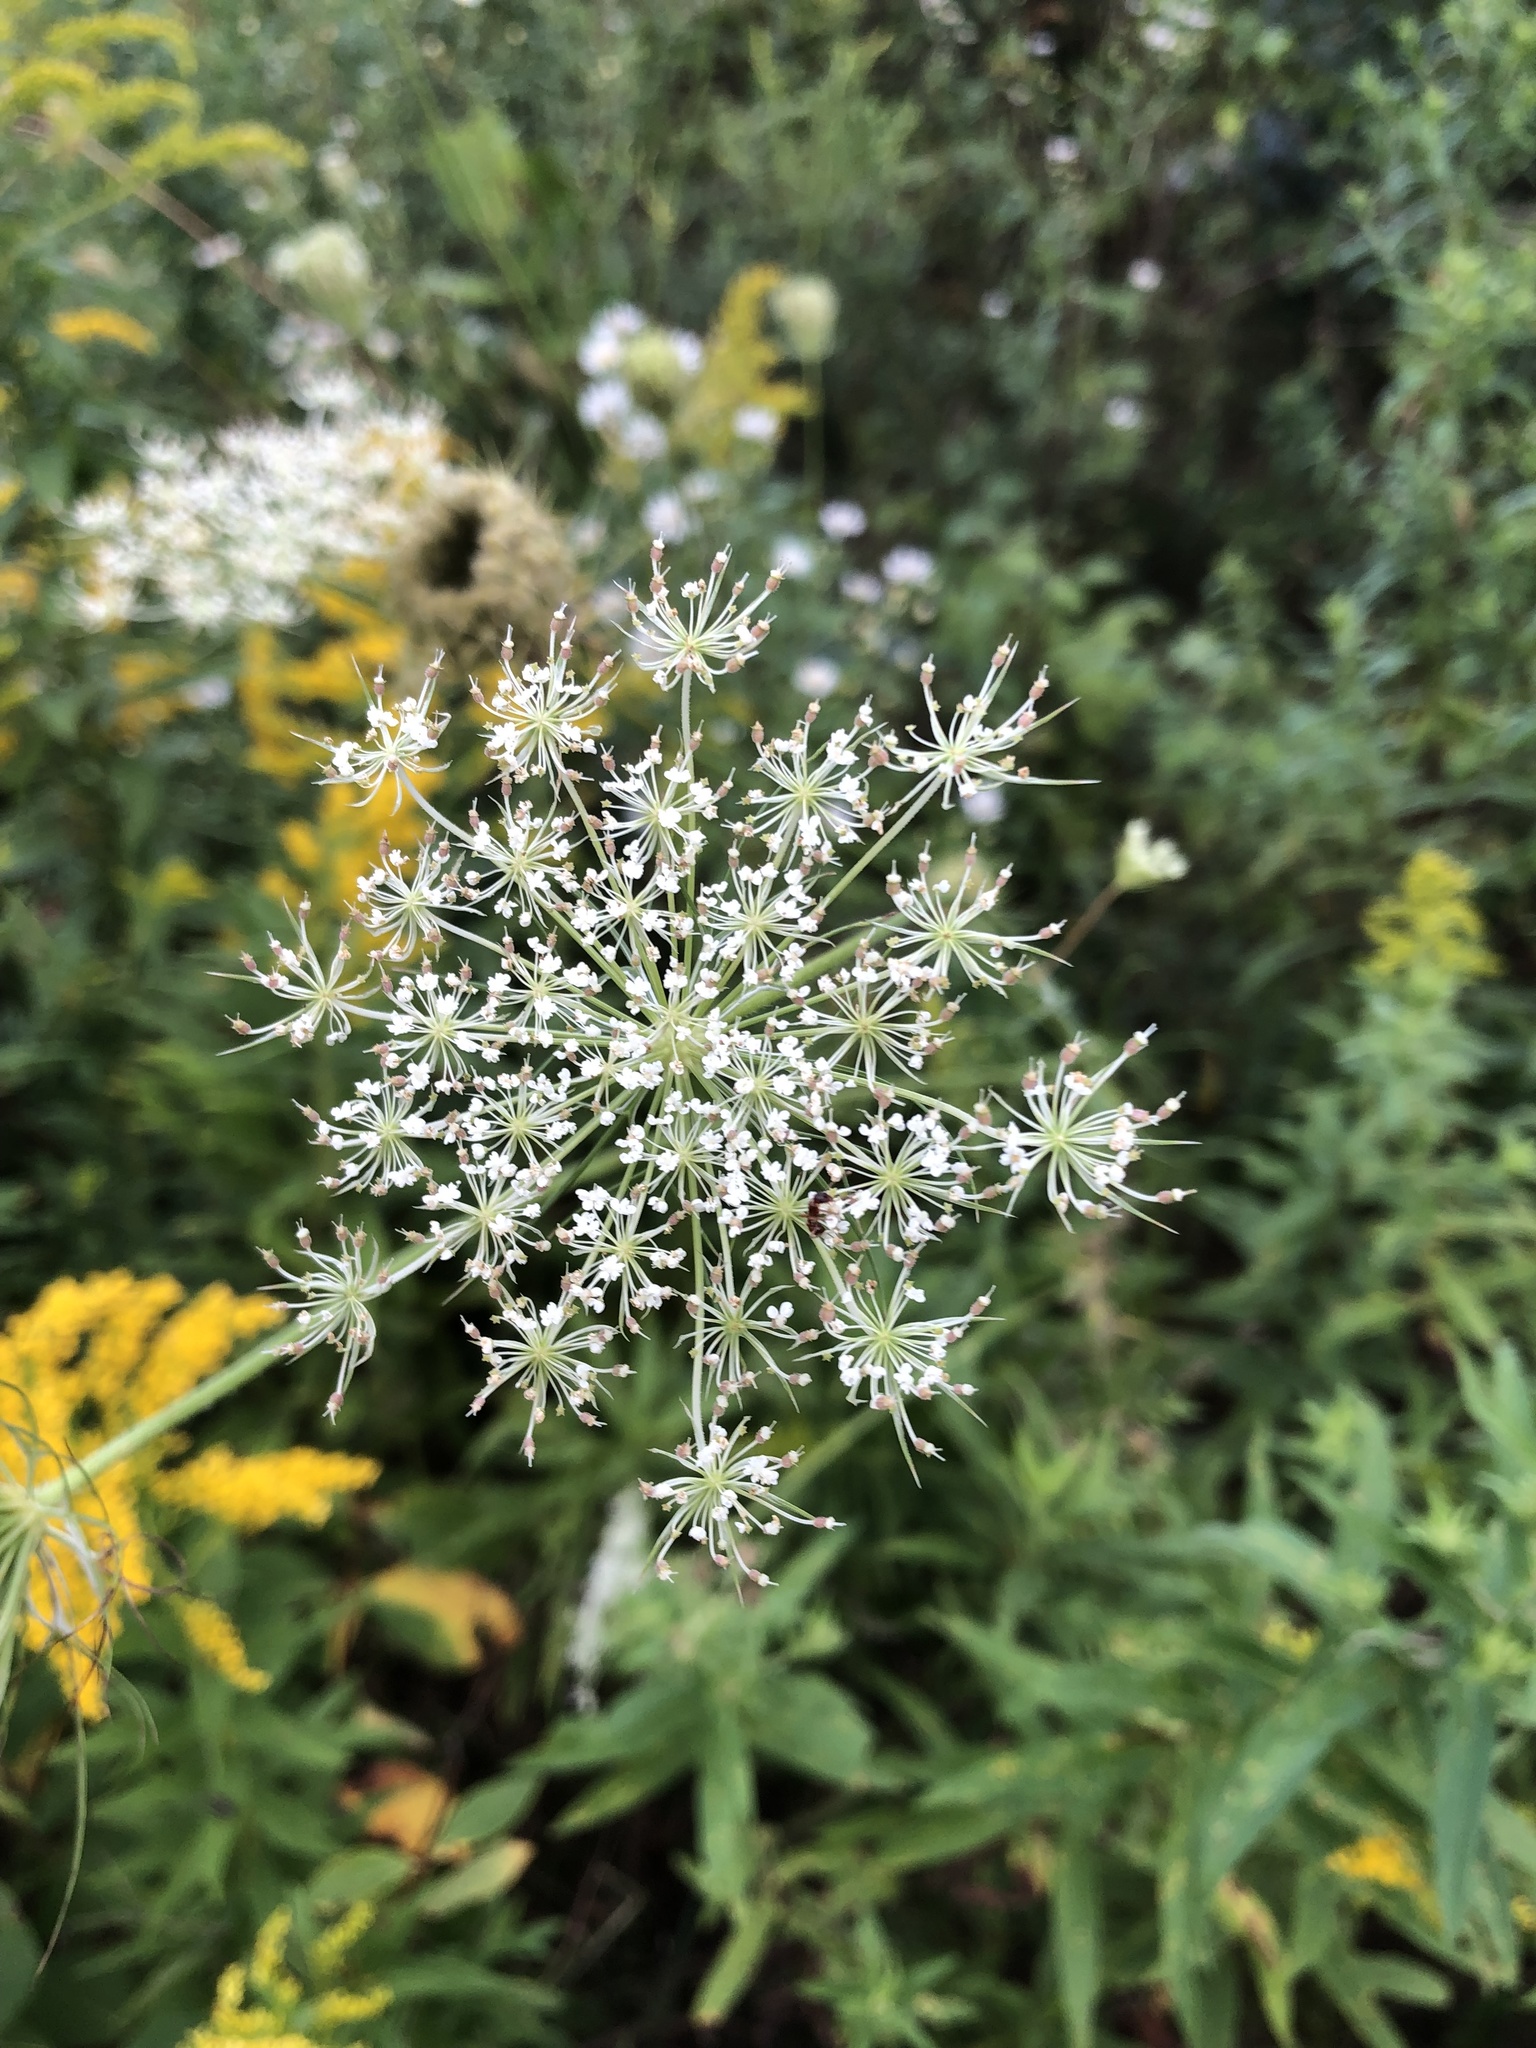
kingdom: Plantae
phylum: Tracheophyta
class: Magnoliopsida
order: Apiales
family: Apiaceae
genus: Daucus
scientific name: Daucus carota
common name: Wild carrot
